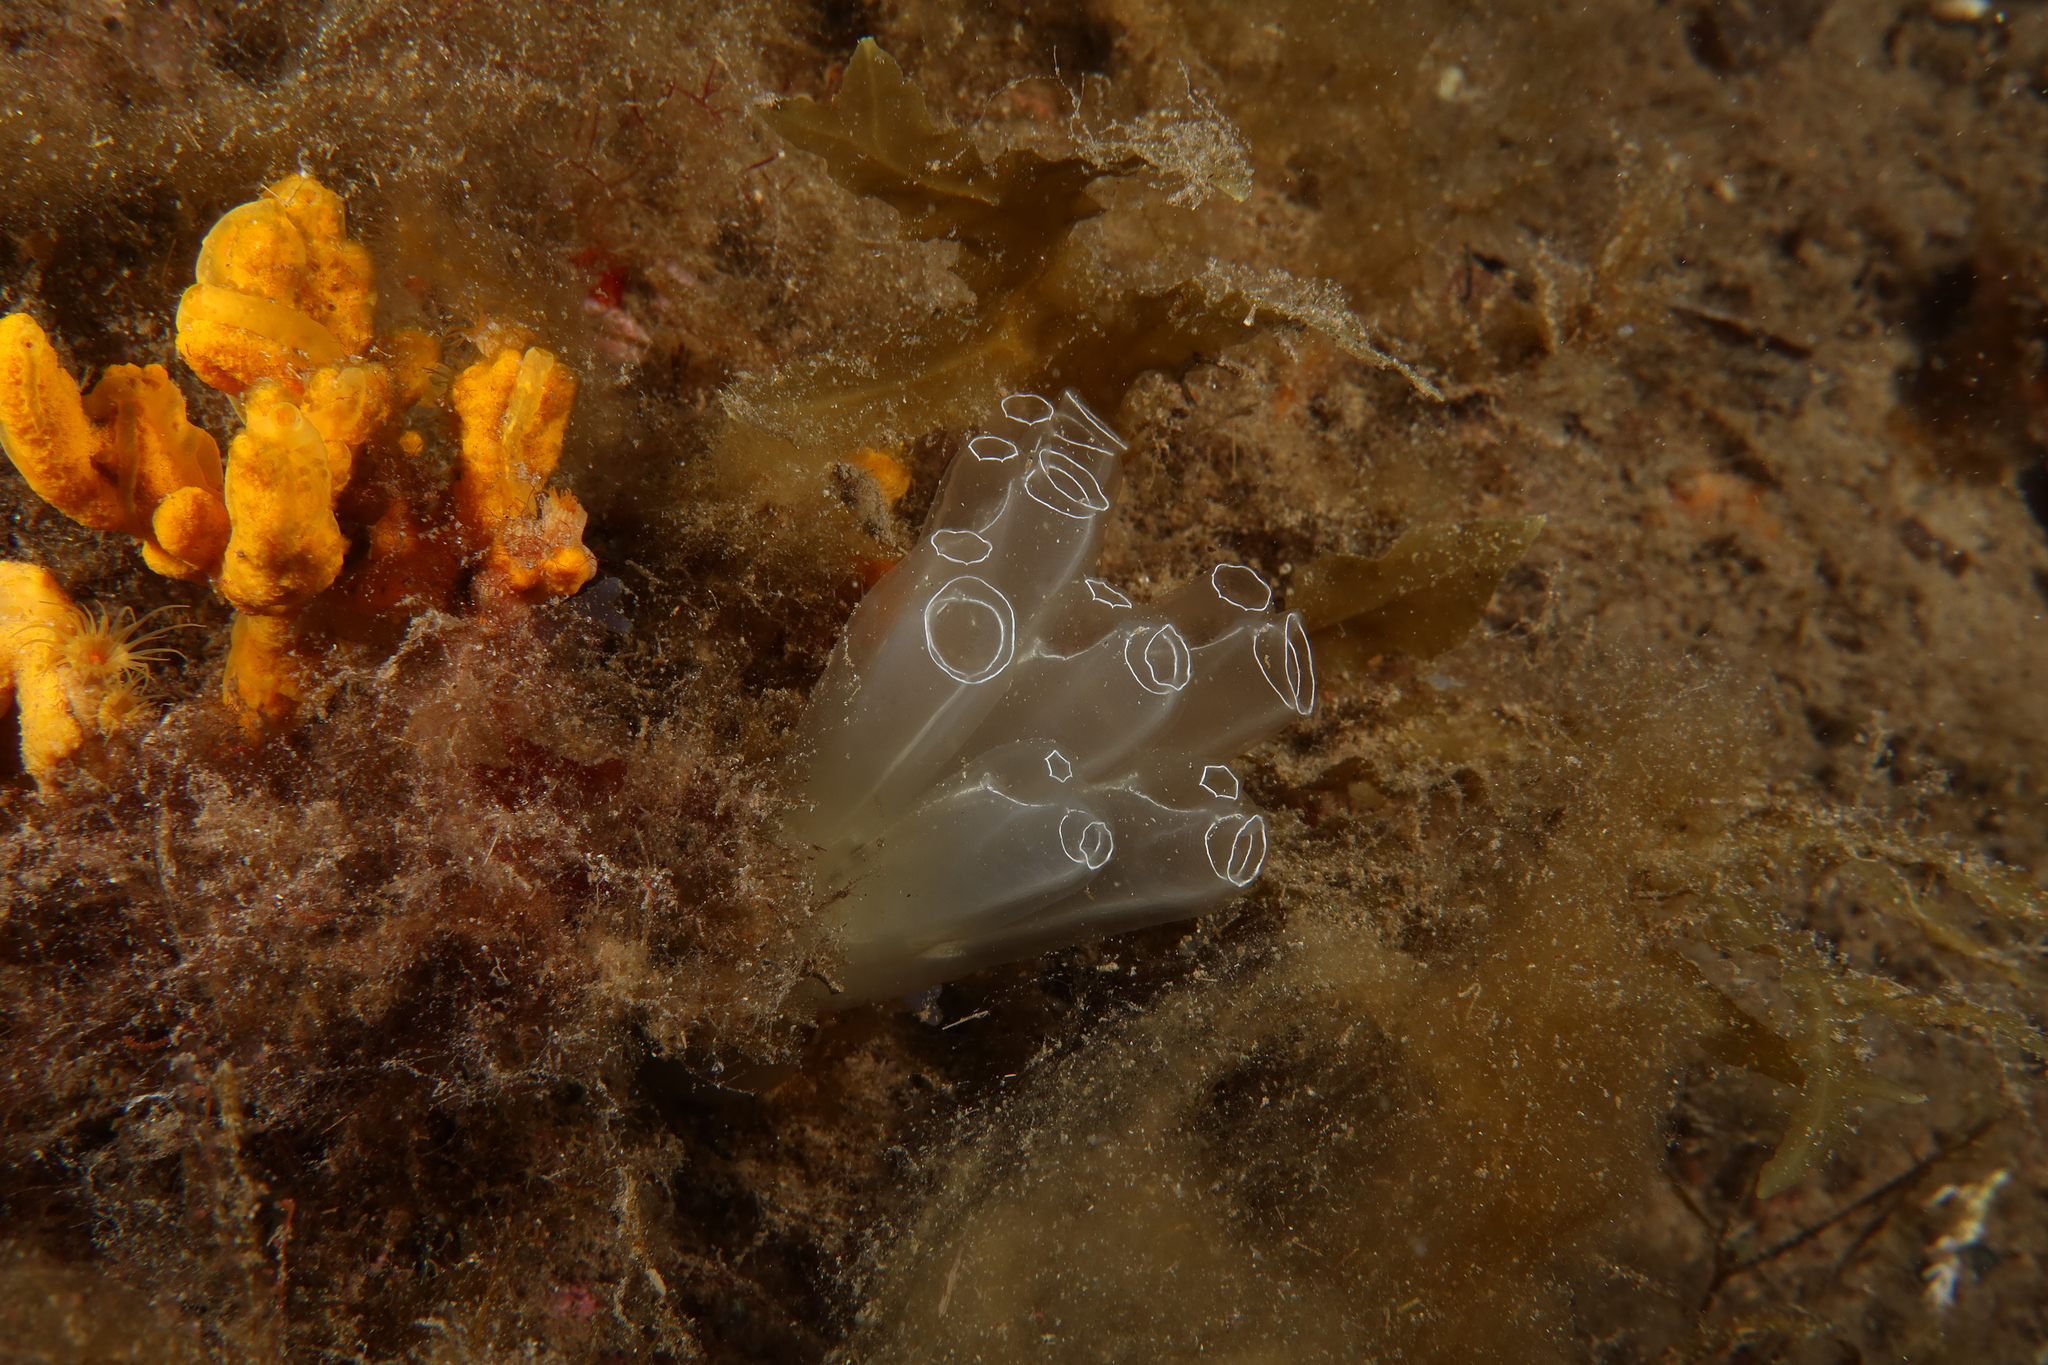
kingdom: Animalia
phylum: Chordata
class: Ascidiacea
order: Aplousobranchia
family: Diazonidae
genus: Diazona
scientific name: Diazona violacea
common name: Football ascidian
